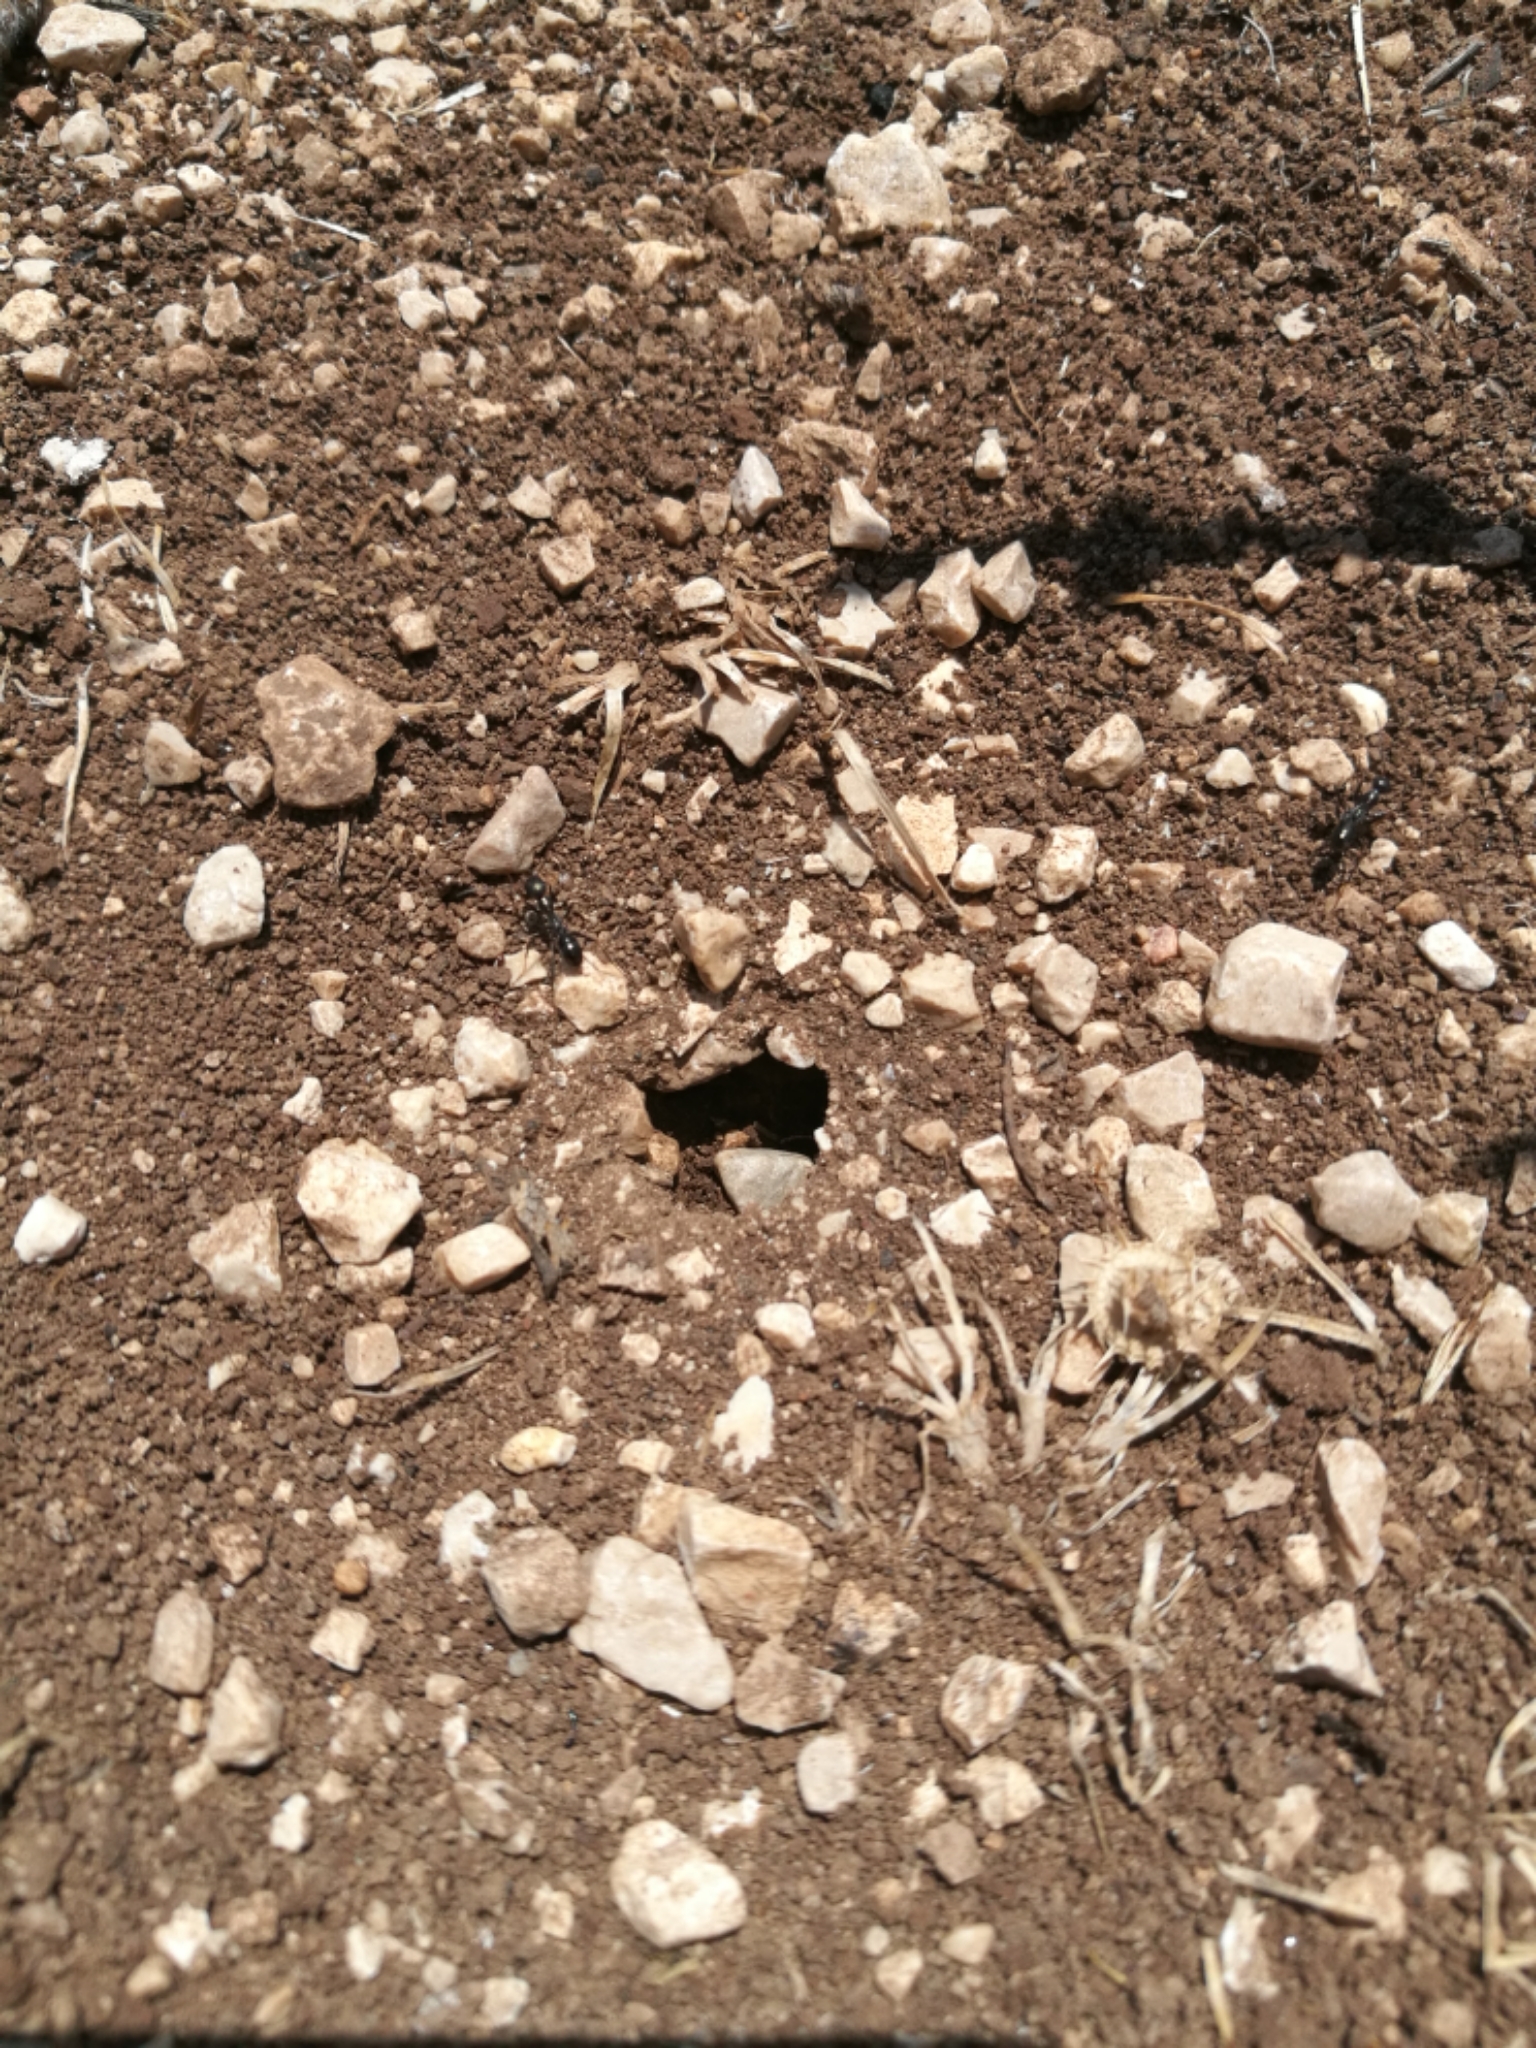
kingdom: Animalia
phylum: Arthropoda
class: Insecta
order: Hymenoptera
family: Formicidae
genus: Cataglyphis
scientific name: Cataglyphis italicus
